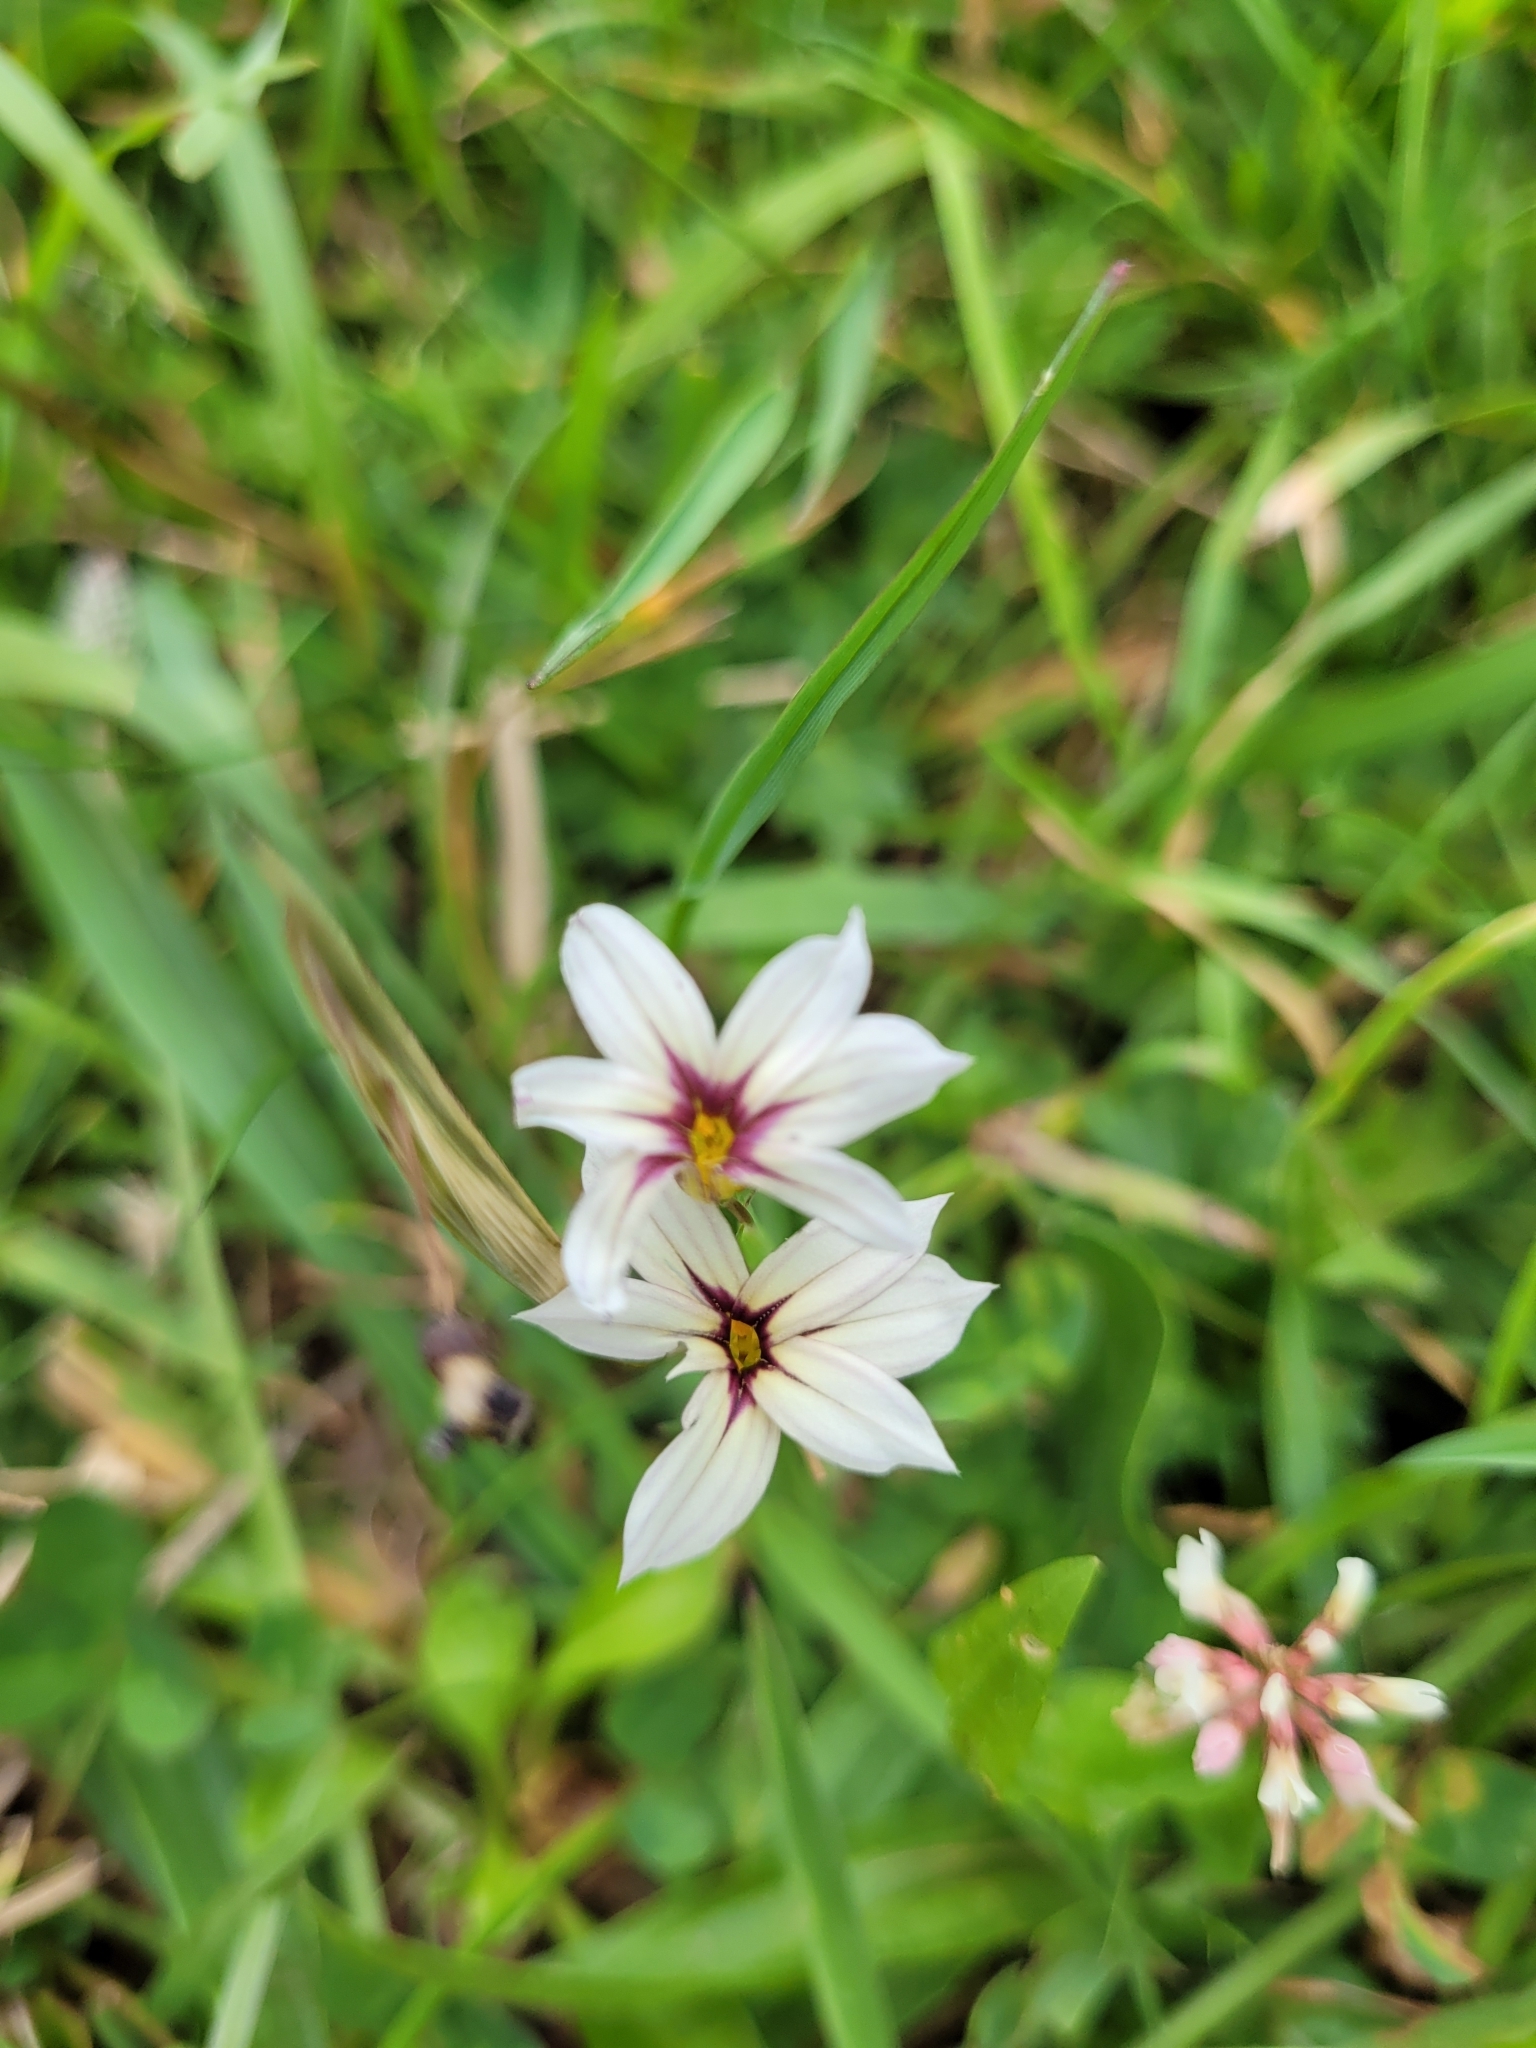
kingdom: Plantae
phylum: Tracheophyta
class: Liliopsida
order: Asparagales
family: Iridaceae
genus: Sisyrinchium
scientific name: Sisyrinchium micranthum
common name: Bermuda pigroot
